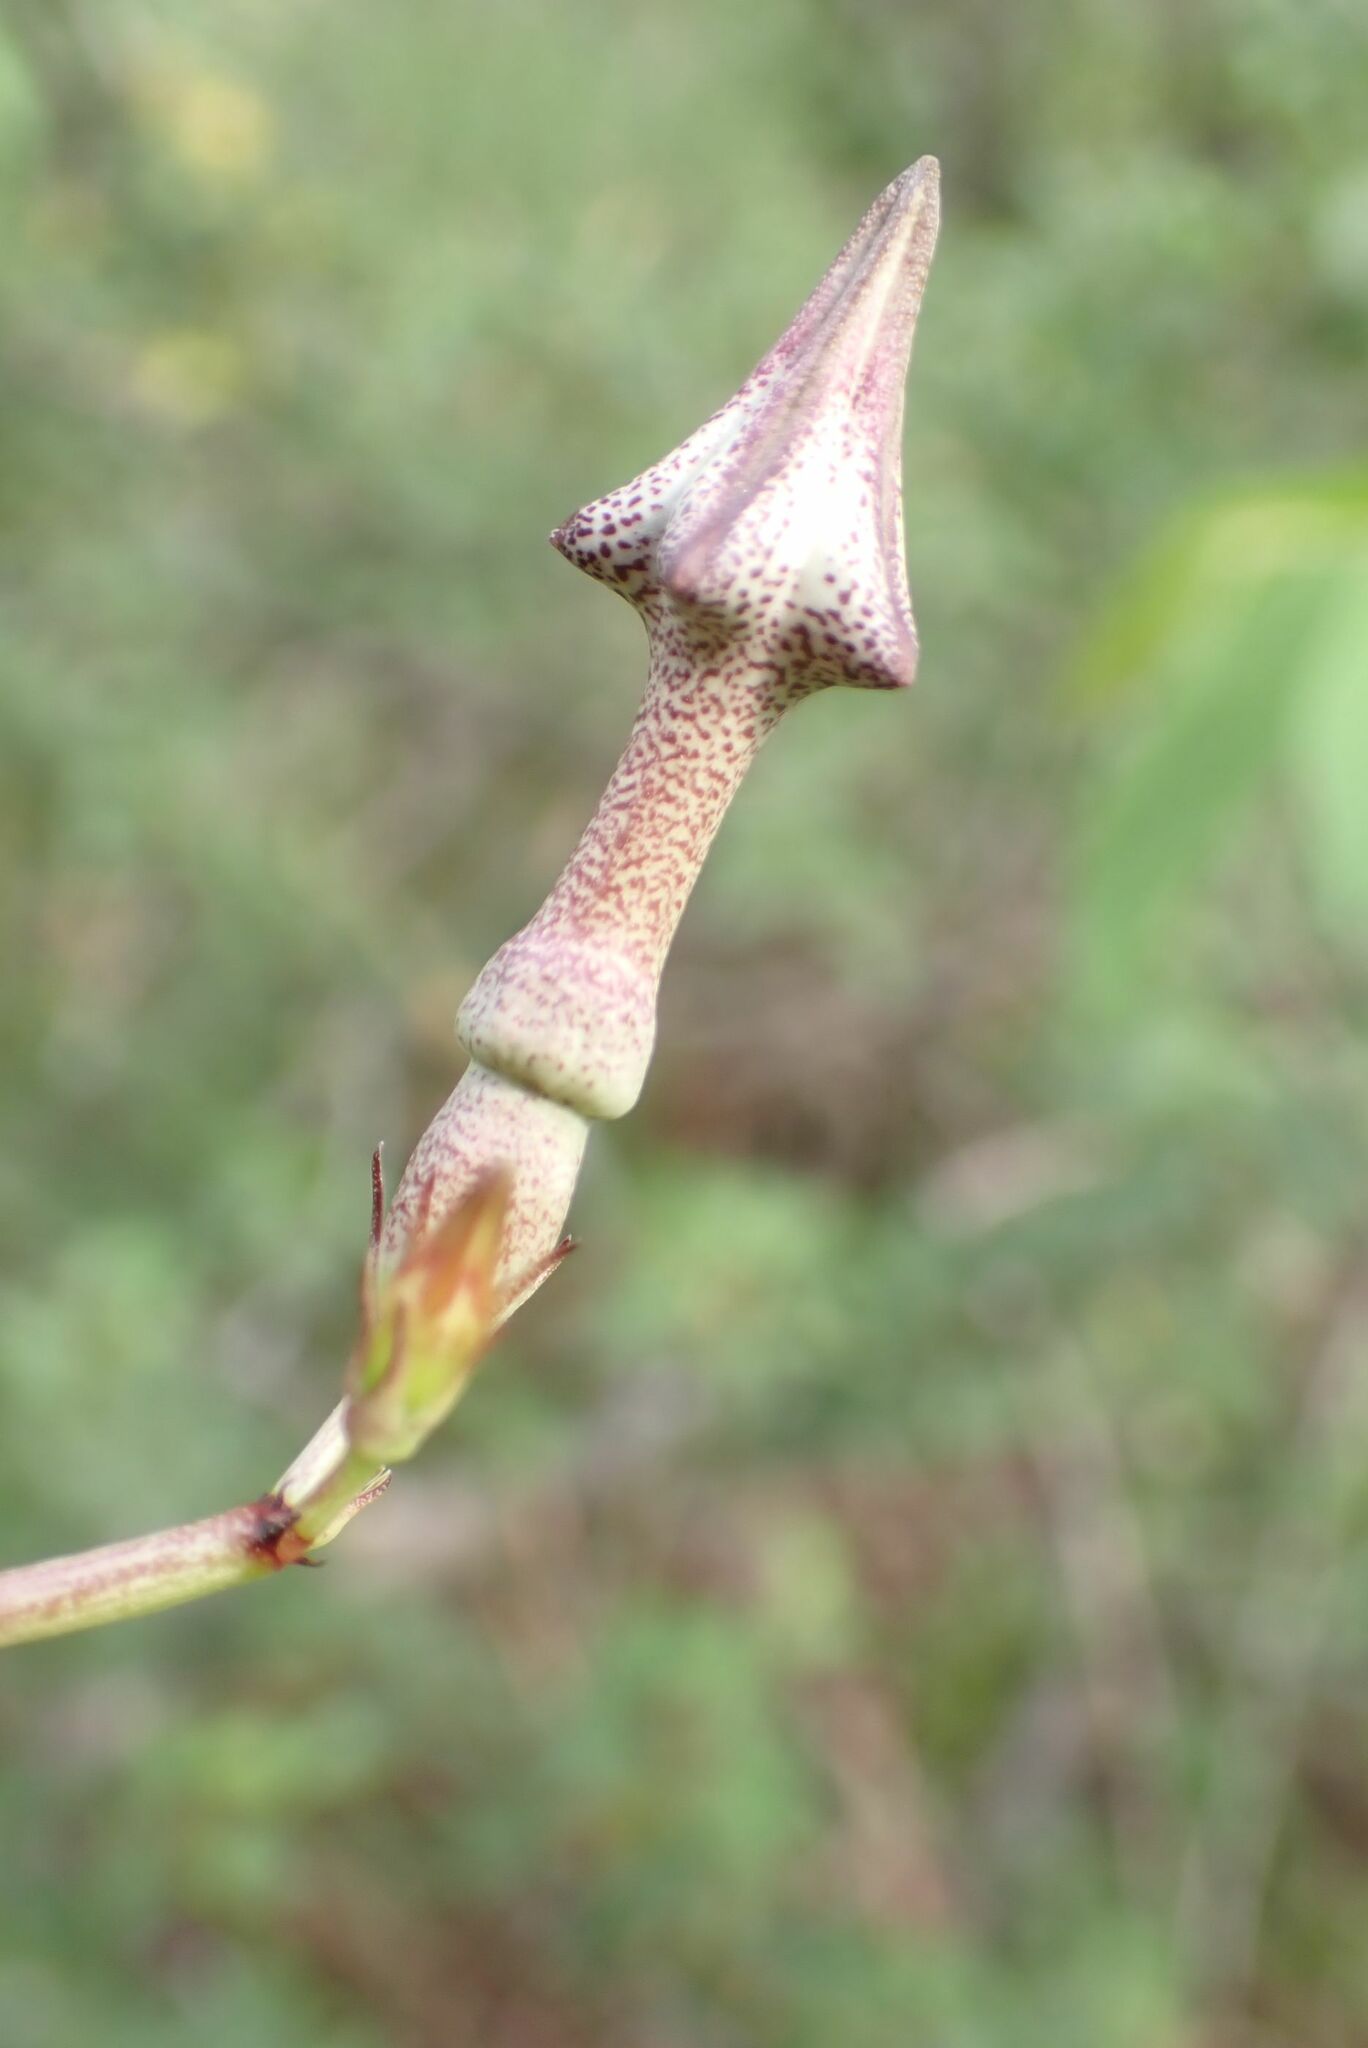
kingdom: Plantae
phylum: Tracheophyta
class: Magnoliopsida
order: Gentianales
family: Apocynaceae
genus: Ceropegia
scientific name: Ceropegia nilotica
